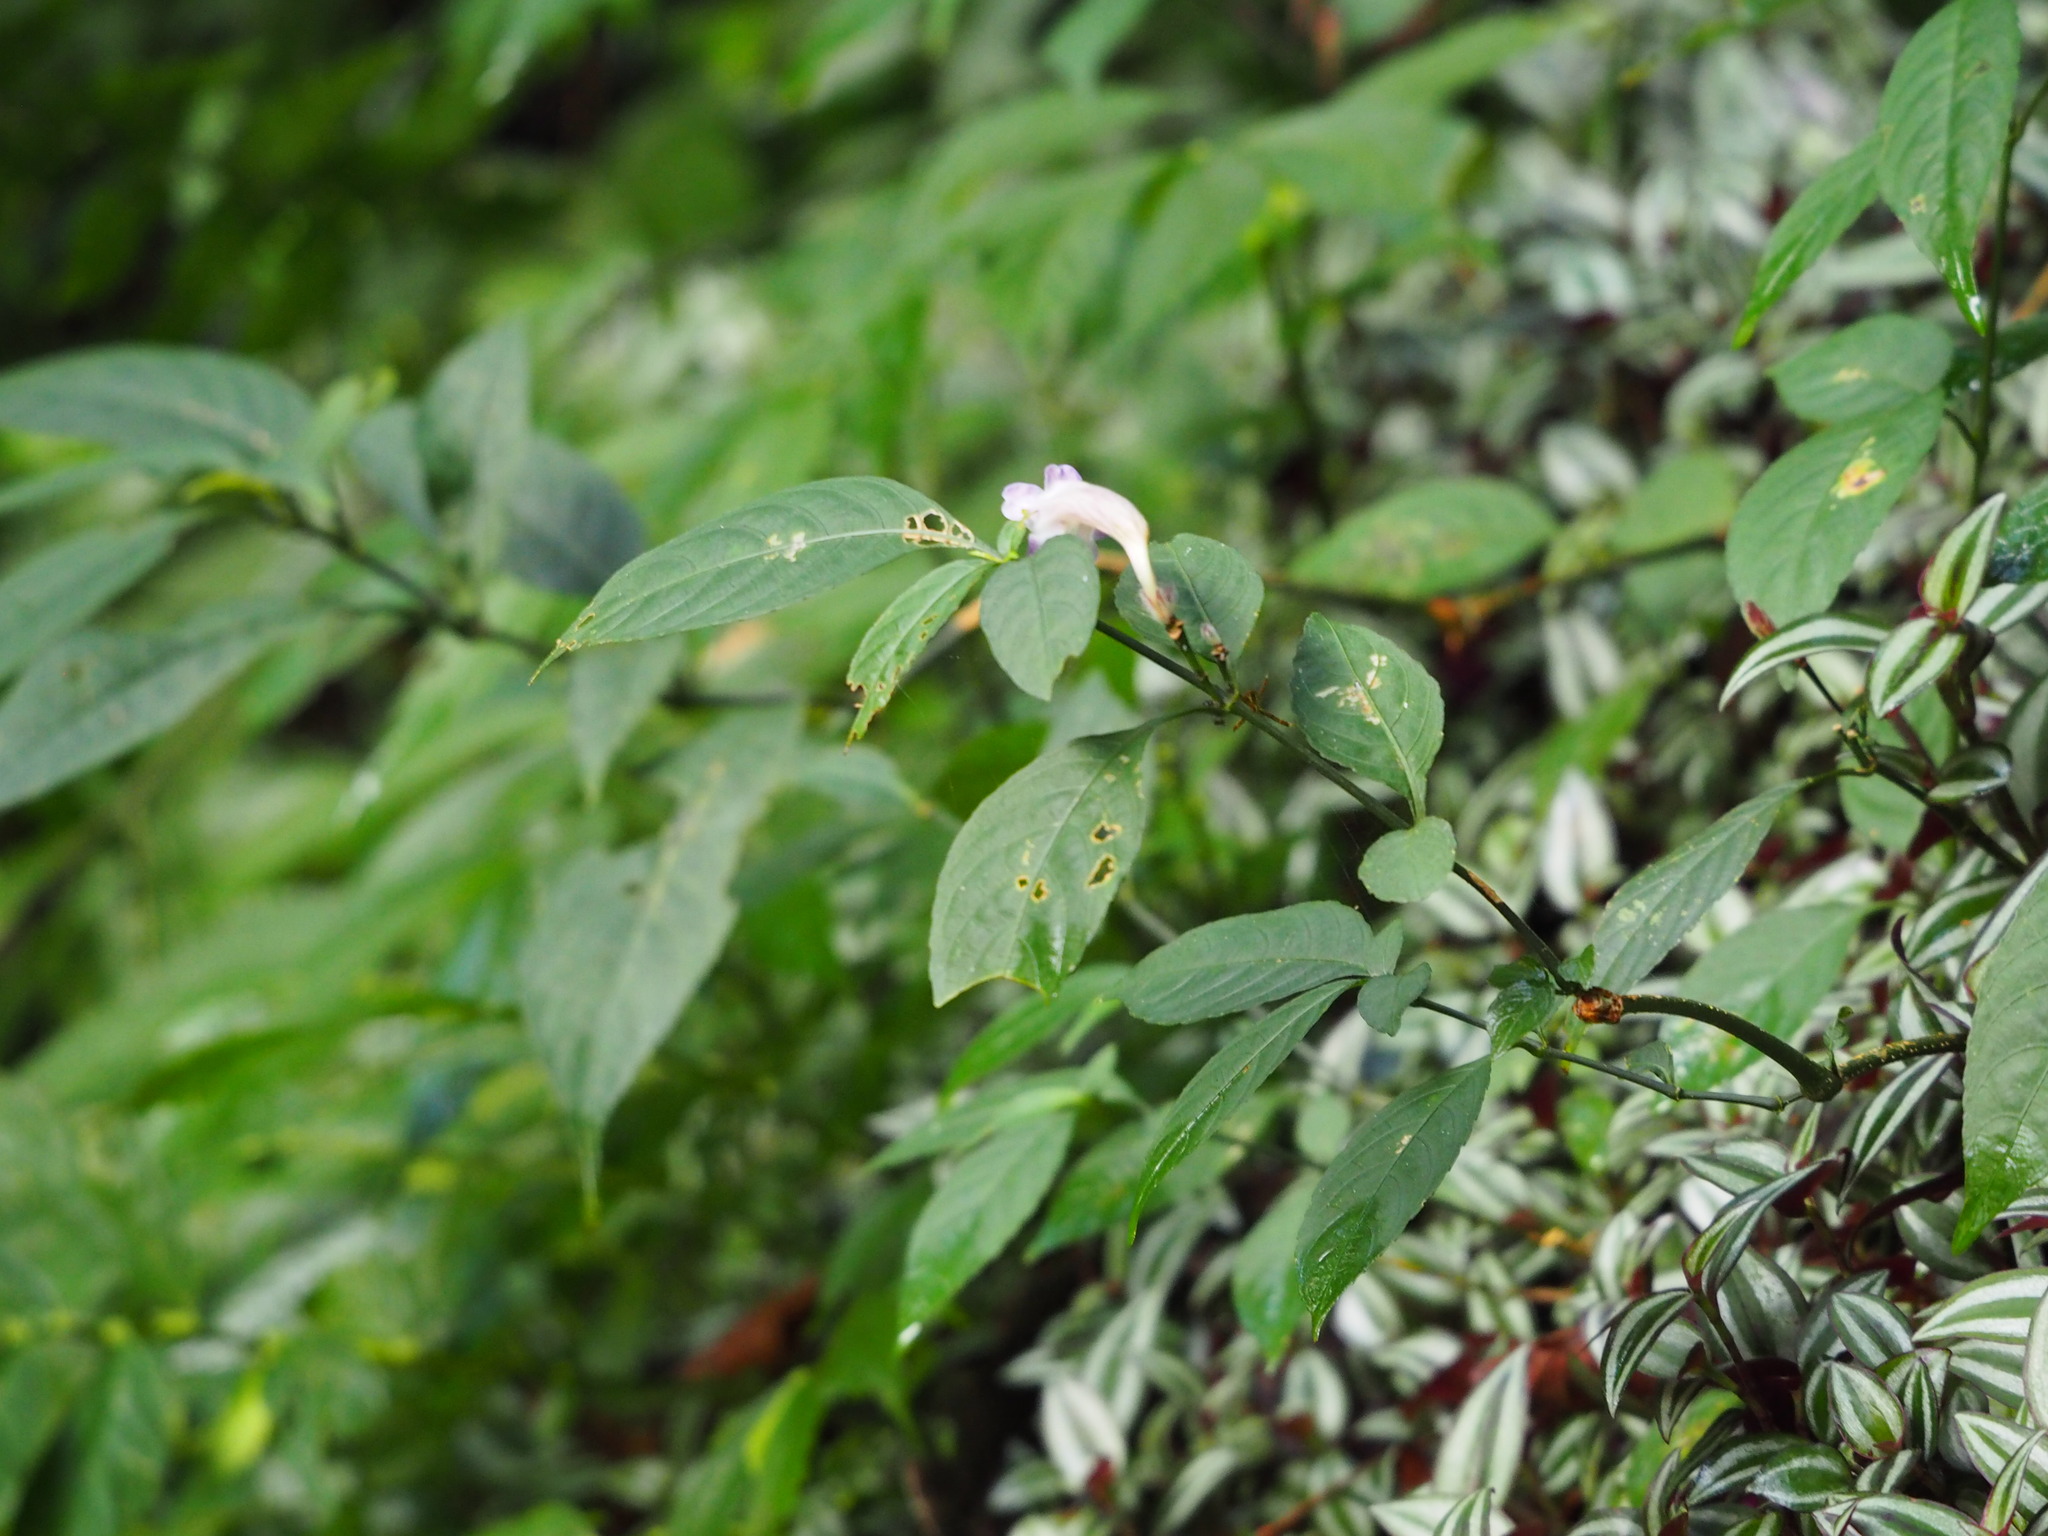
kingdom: Plantae
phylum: Tracheophyta
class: Magnoliopsida
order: Lamiales
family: Acanthaceae
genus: Strobilanthes
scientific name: Strobilanthes formosana
